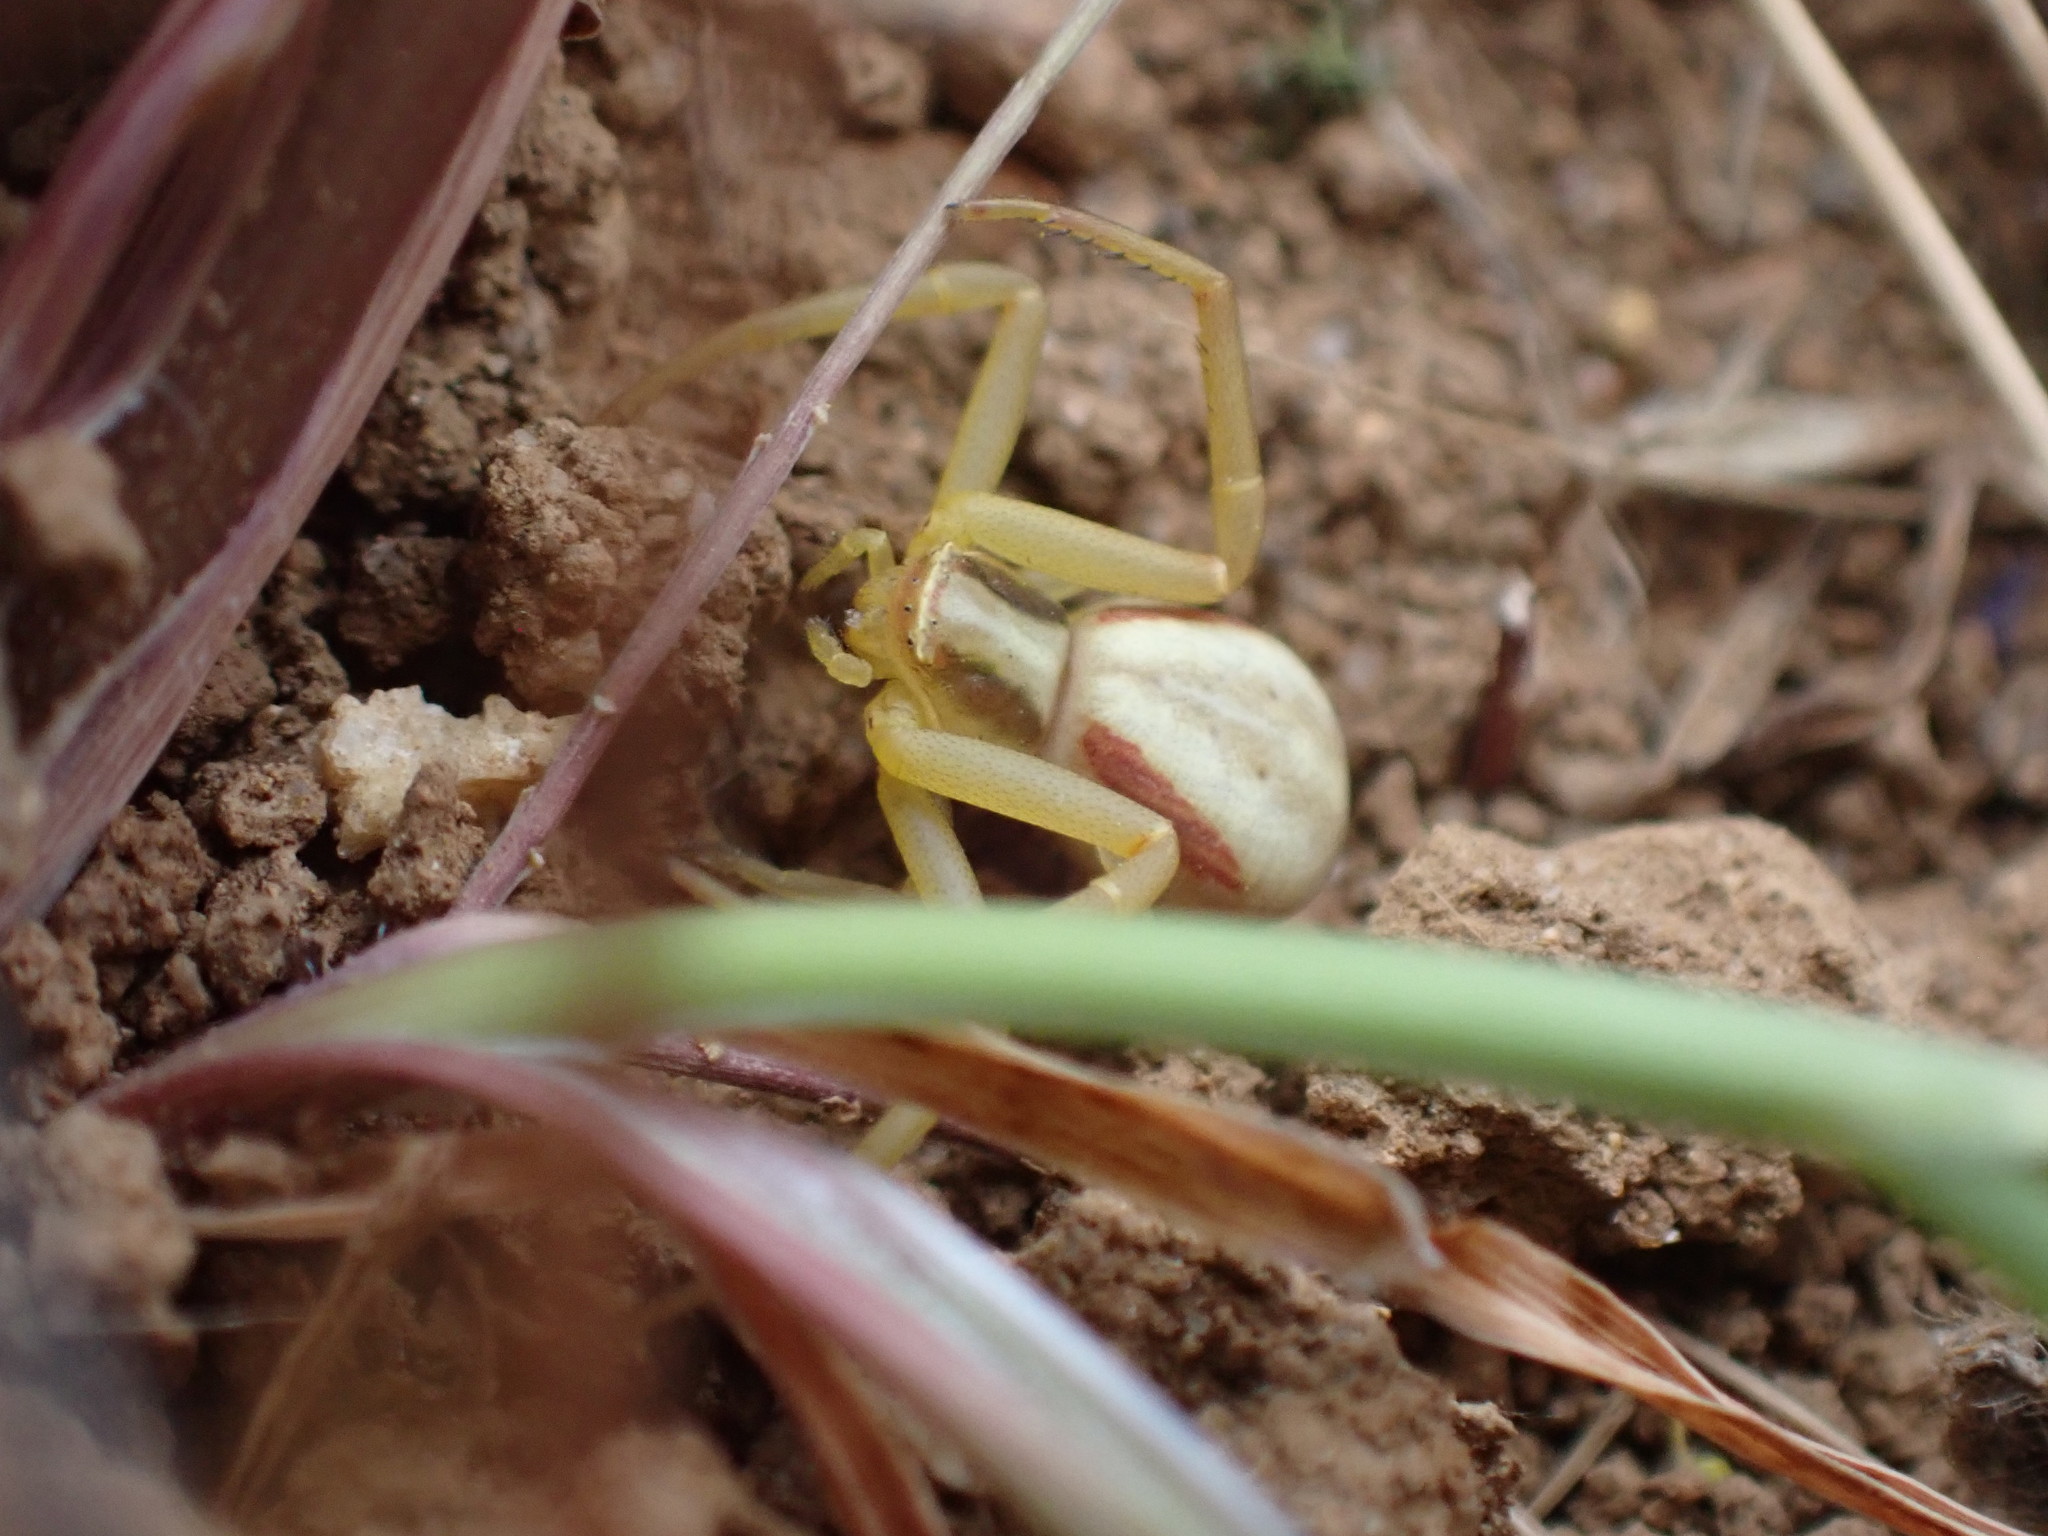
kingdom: Animalia
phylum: Arthropoda
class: Arachnida
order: Araneae
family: Thomisidae
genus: Runcinia
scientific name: Runcinia grammica
